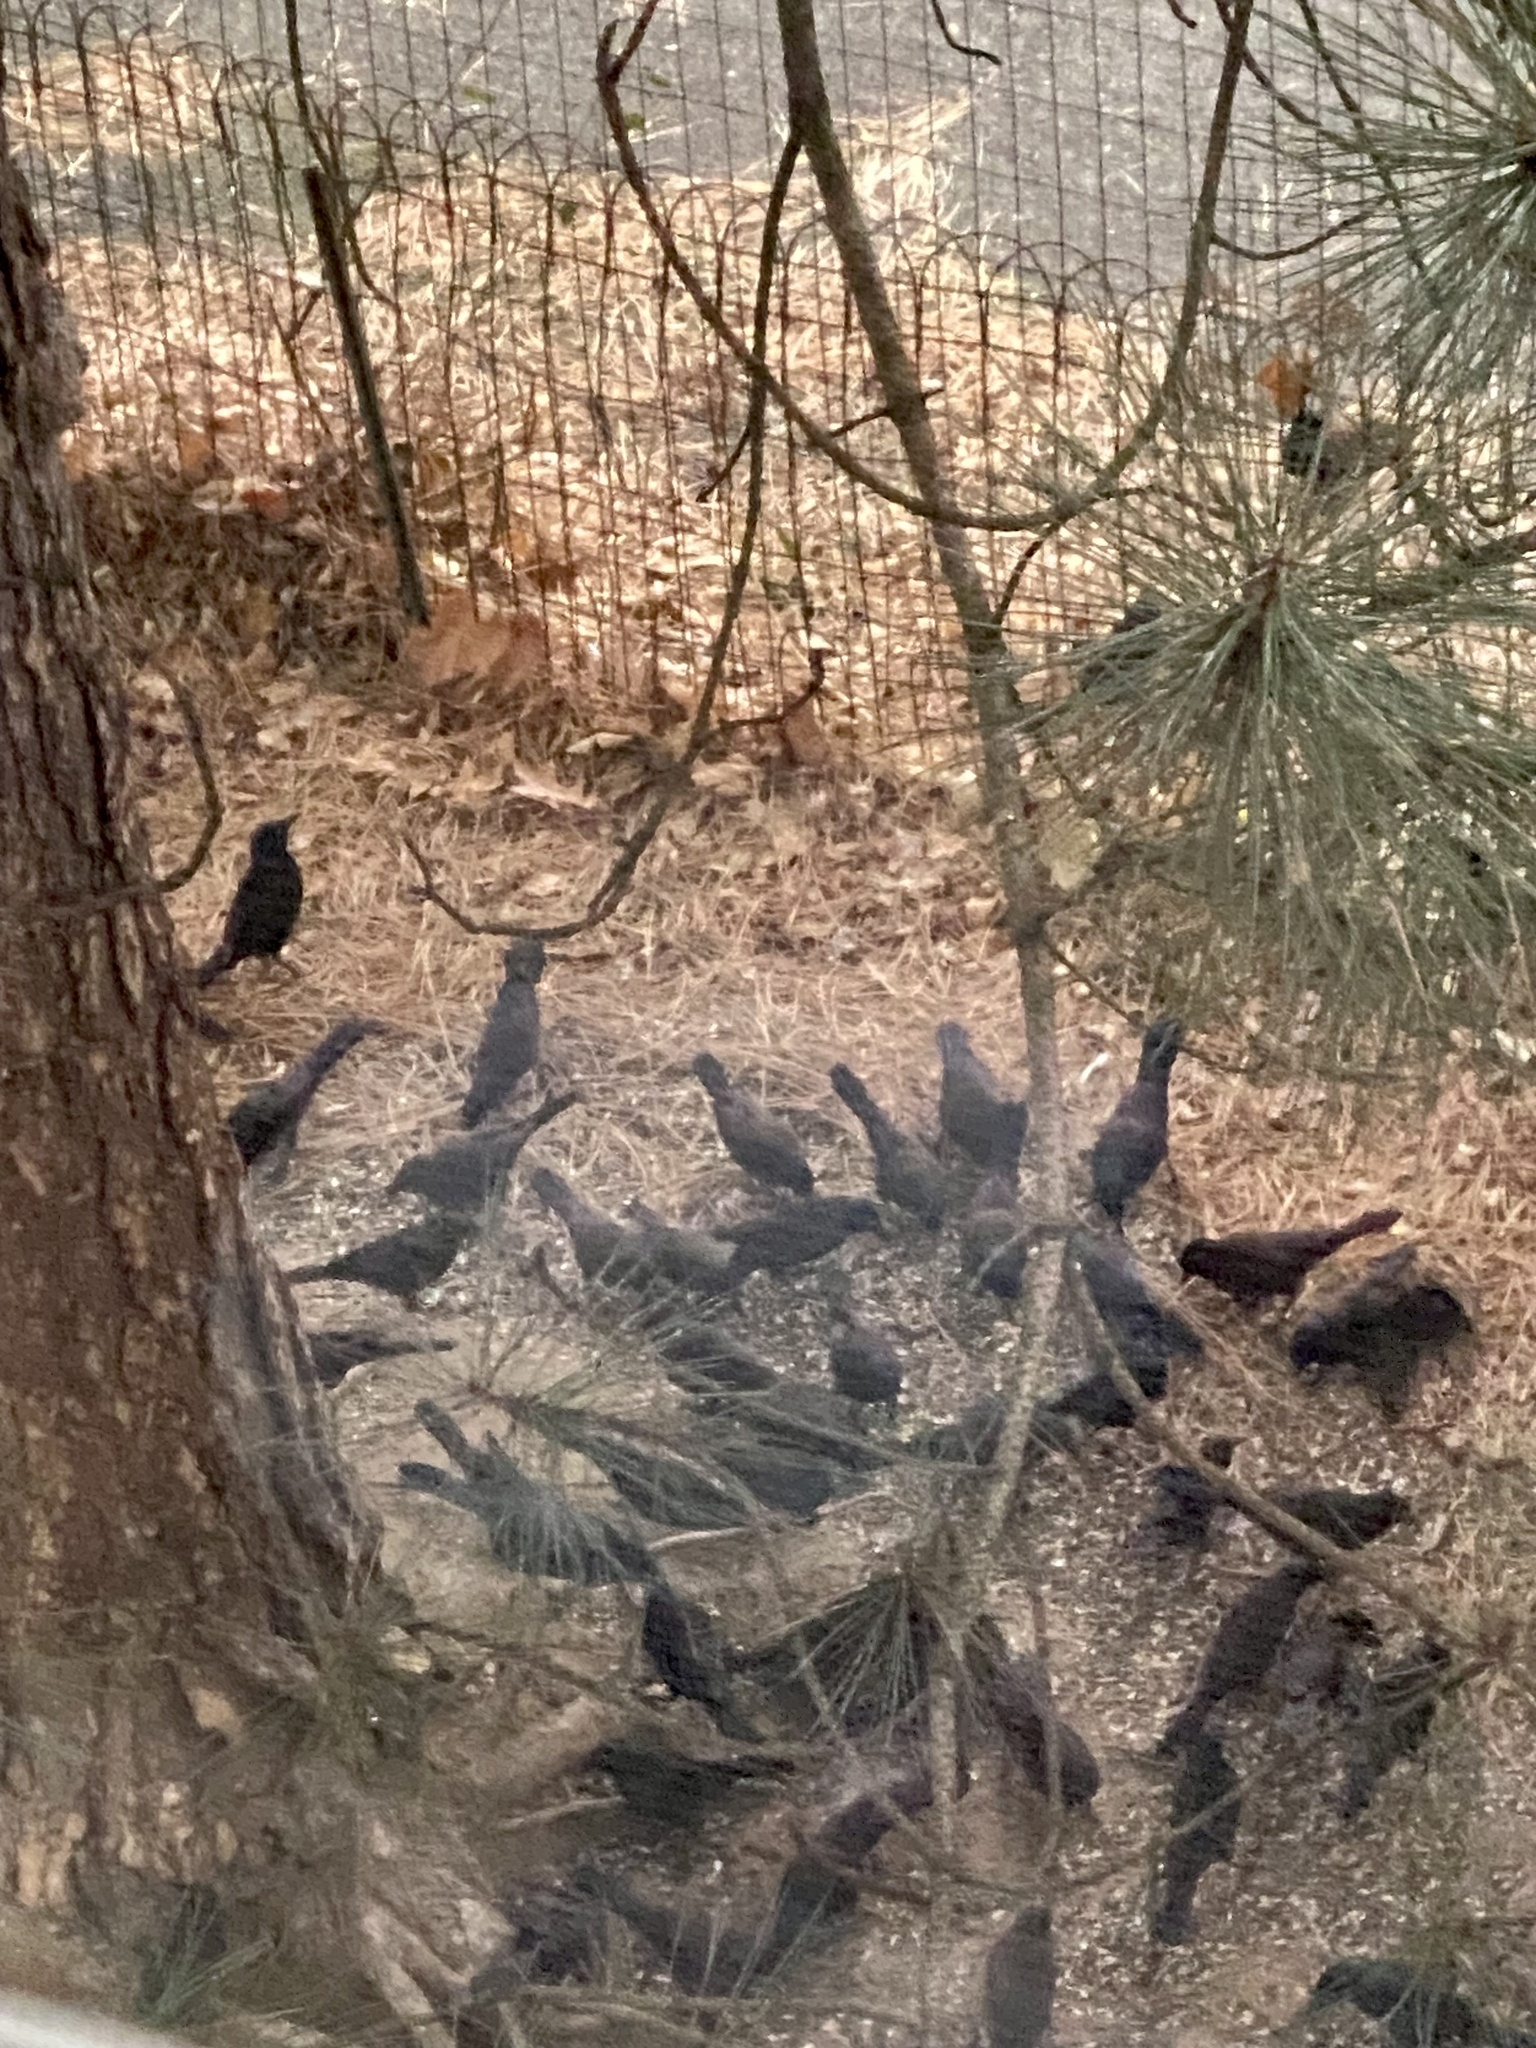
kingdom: Animalia
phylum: Chordata
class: Aves
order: Passeriformes
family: Icteridae
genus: Quiscalus
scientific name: Quiscalus quiscula
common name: Common grackle
